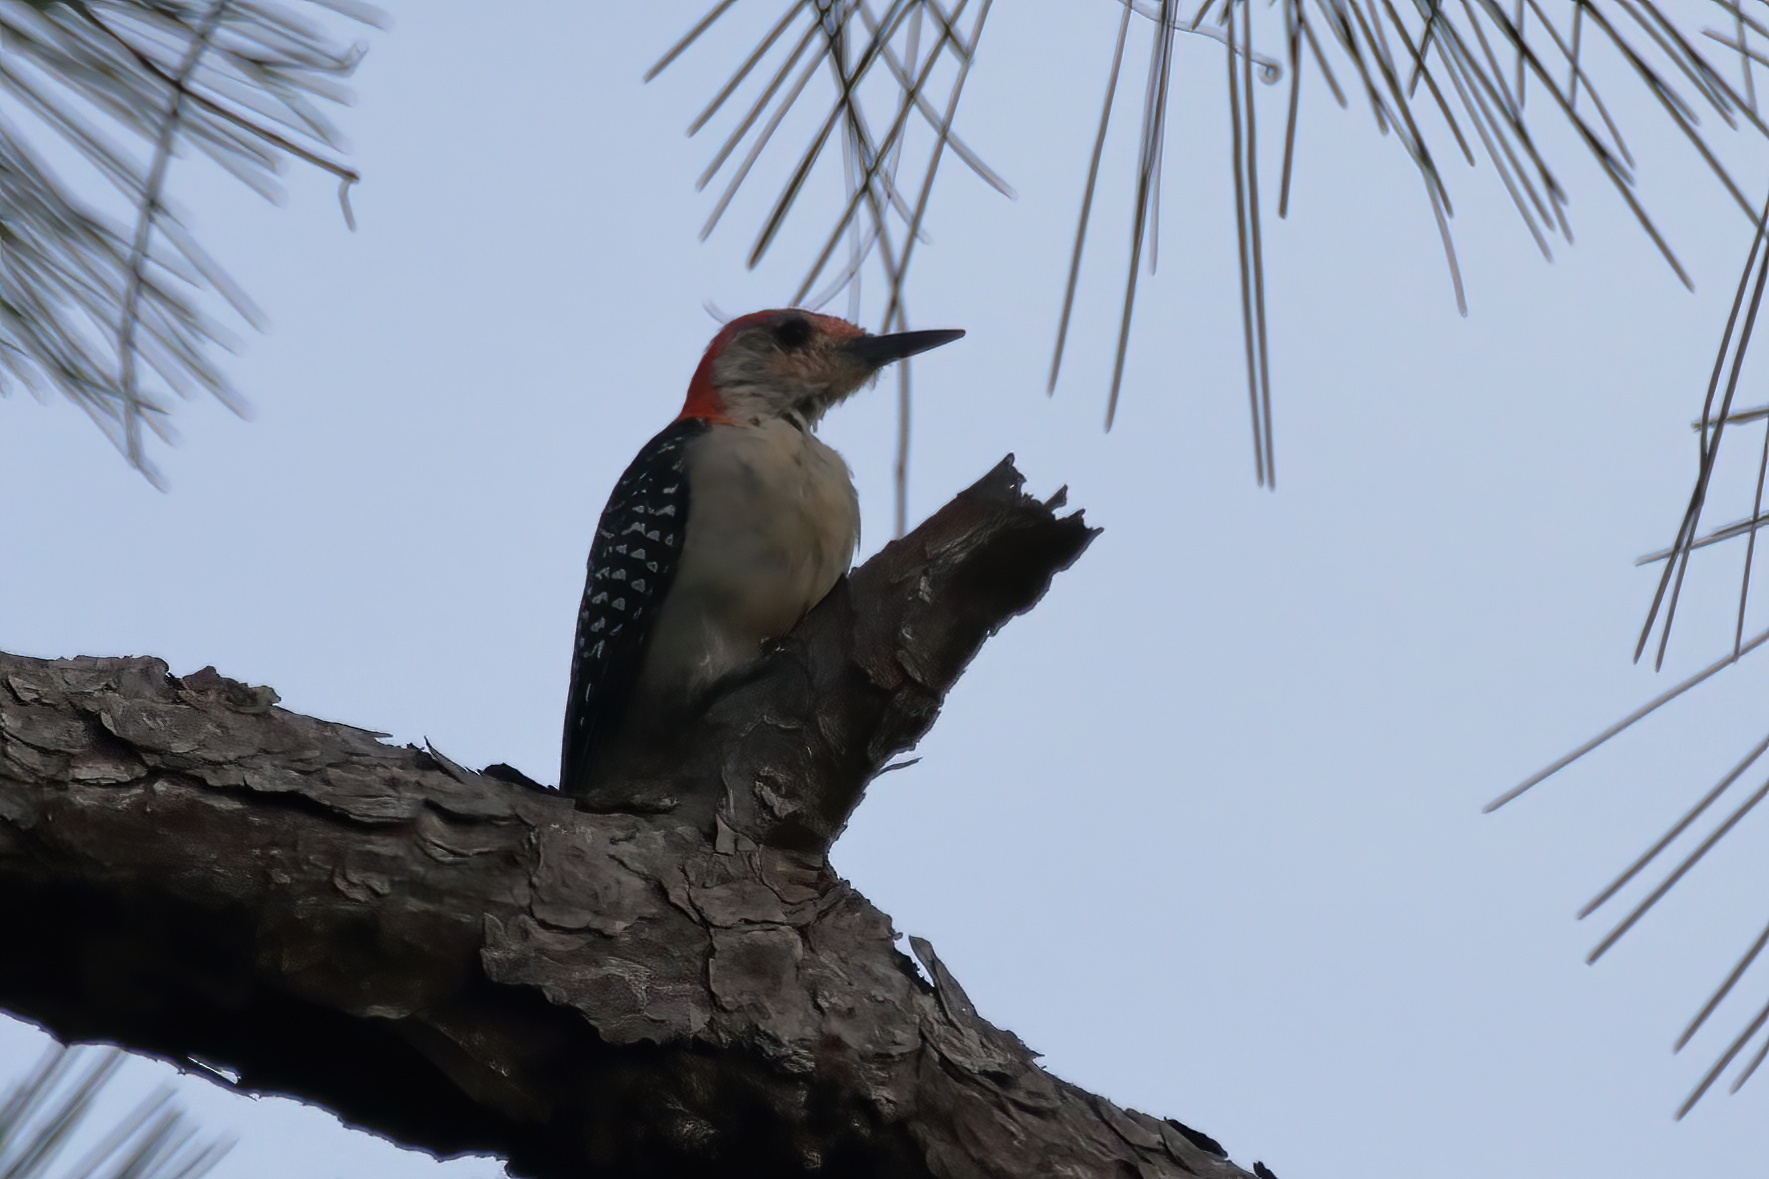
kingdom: Animalia
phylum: Chordata
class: Aves
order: Piciformes
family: Picidae
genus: Melanerpes
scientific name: Melanerpes carolinus
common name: Red-bellied woodpecker
